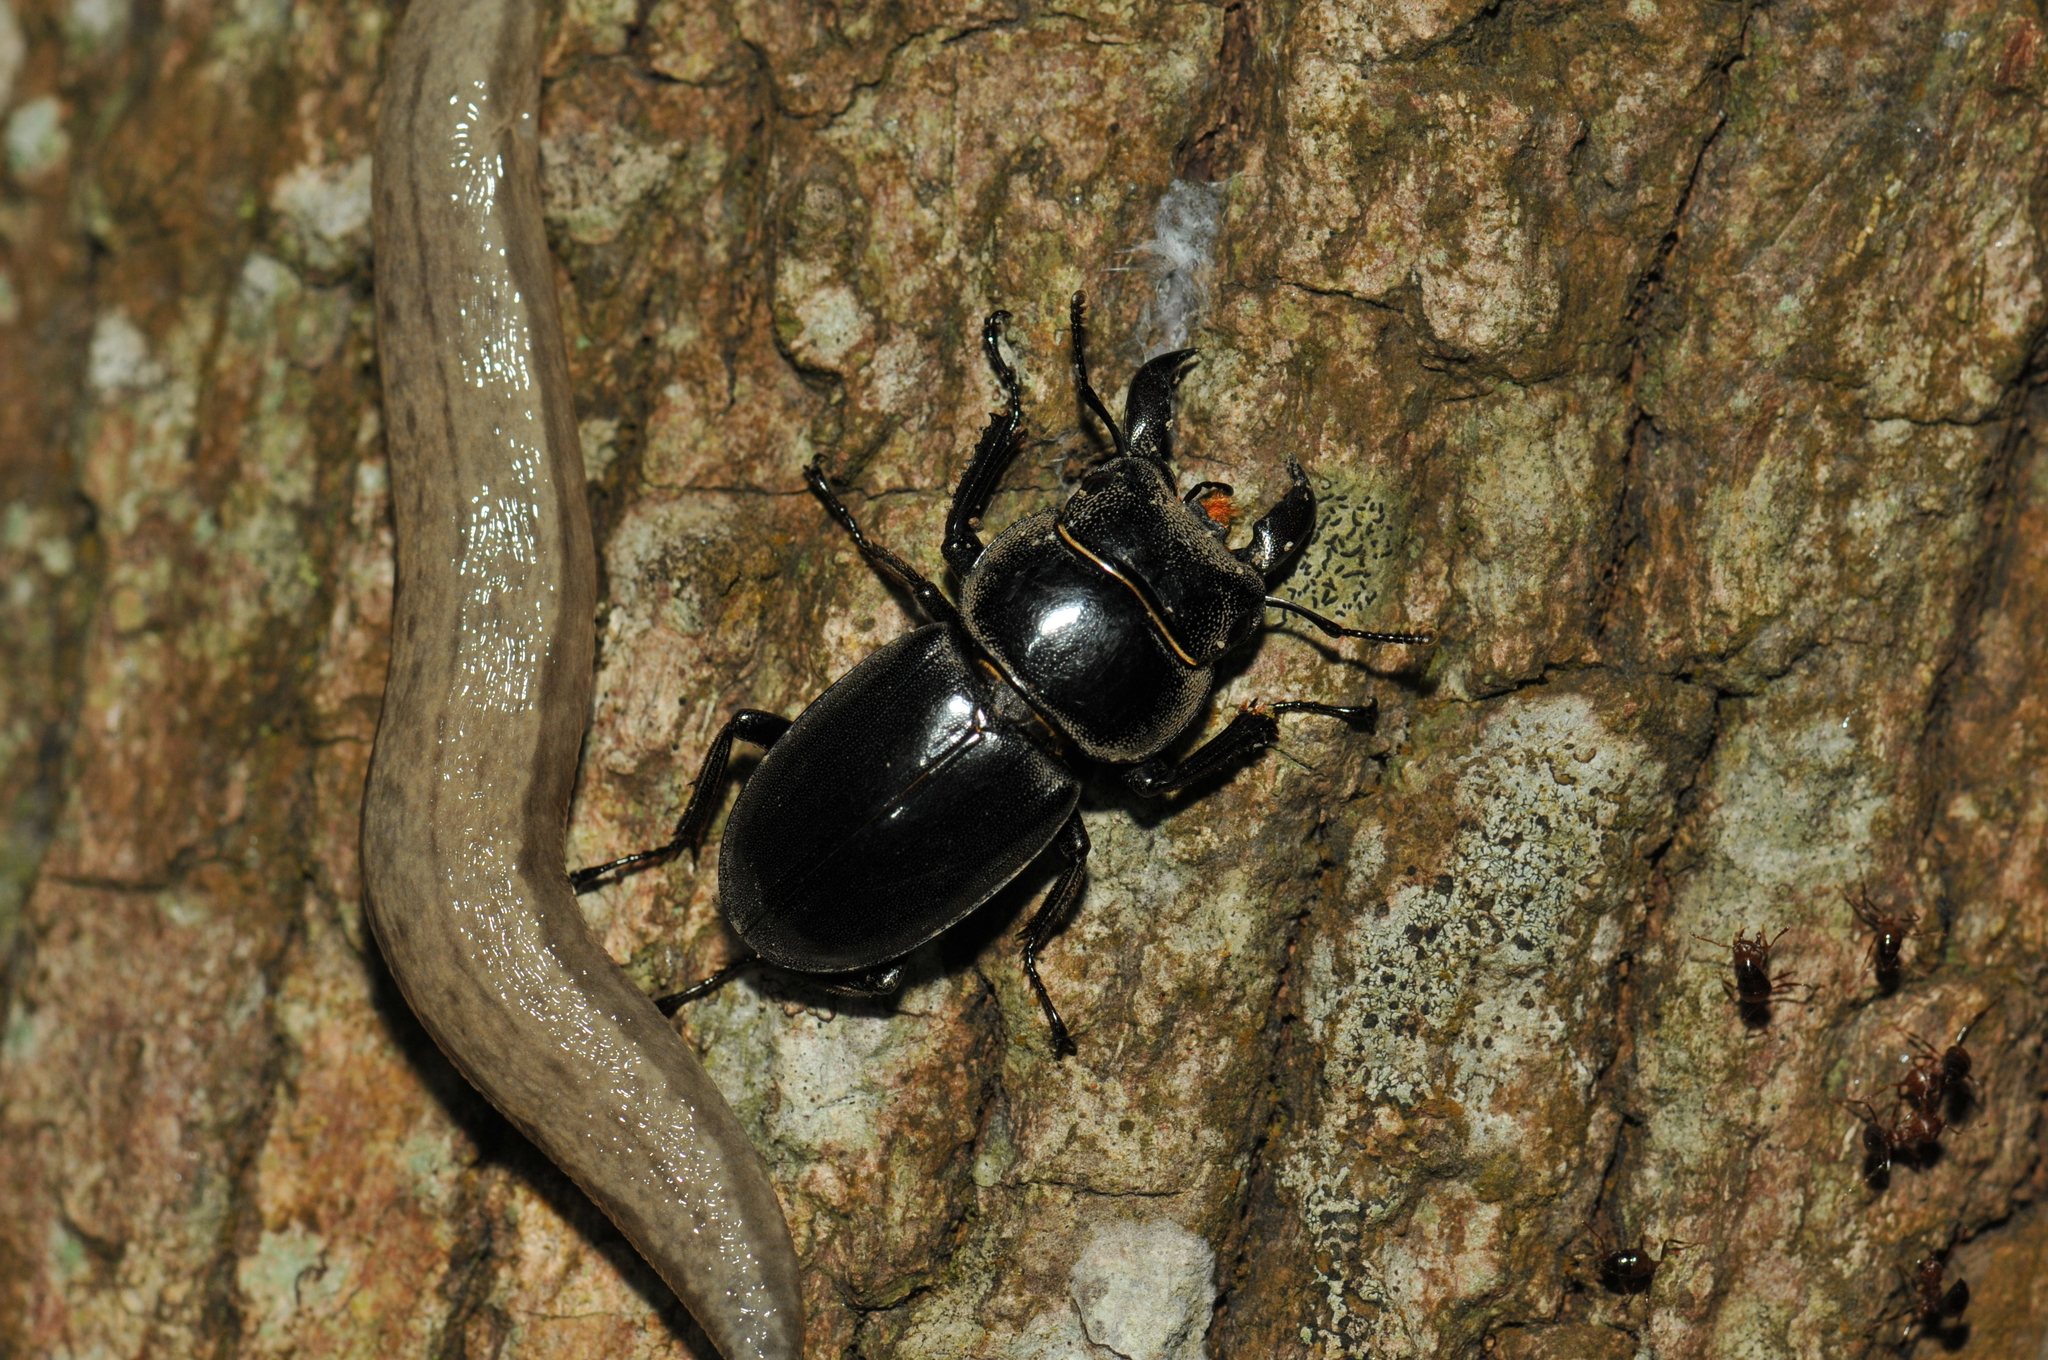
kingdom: Animalia
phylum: Arthropoda
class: Insecta
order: Coleoptera
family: Lucanidae
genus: Serrognathus
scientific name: Serrognathus titanus
